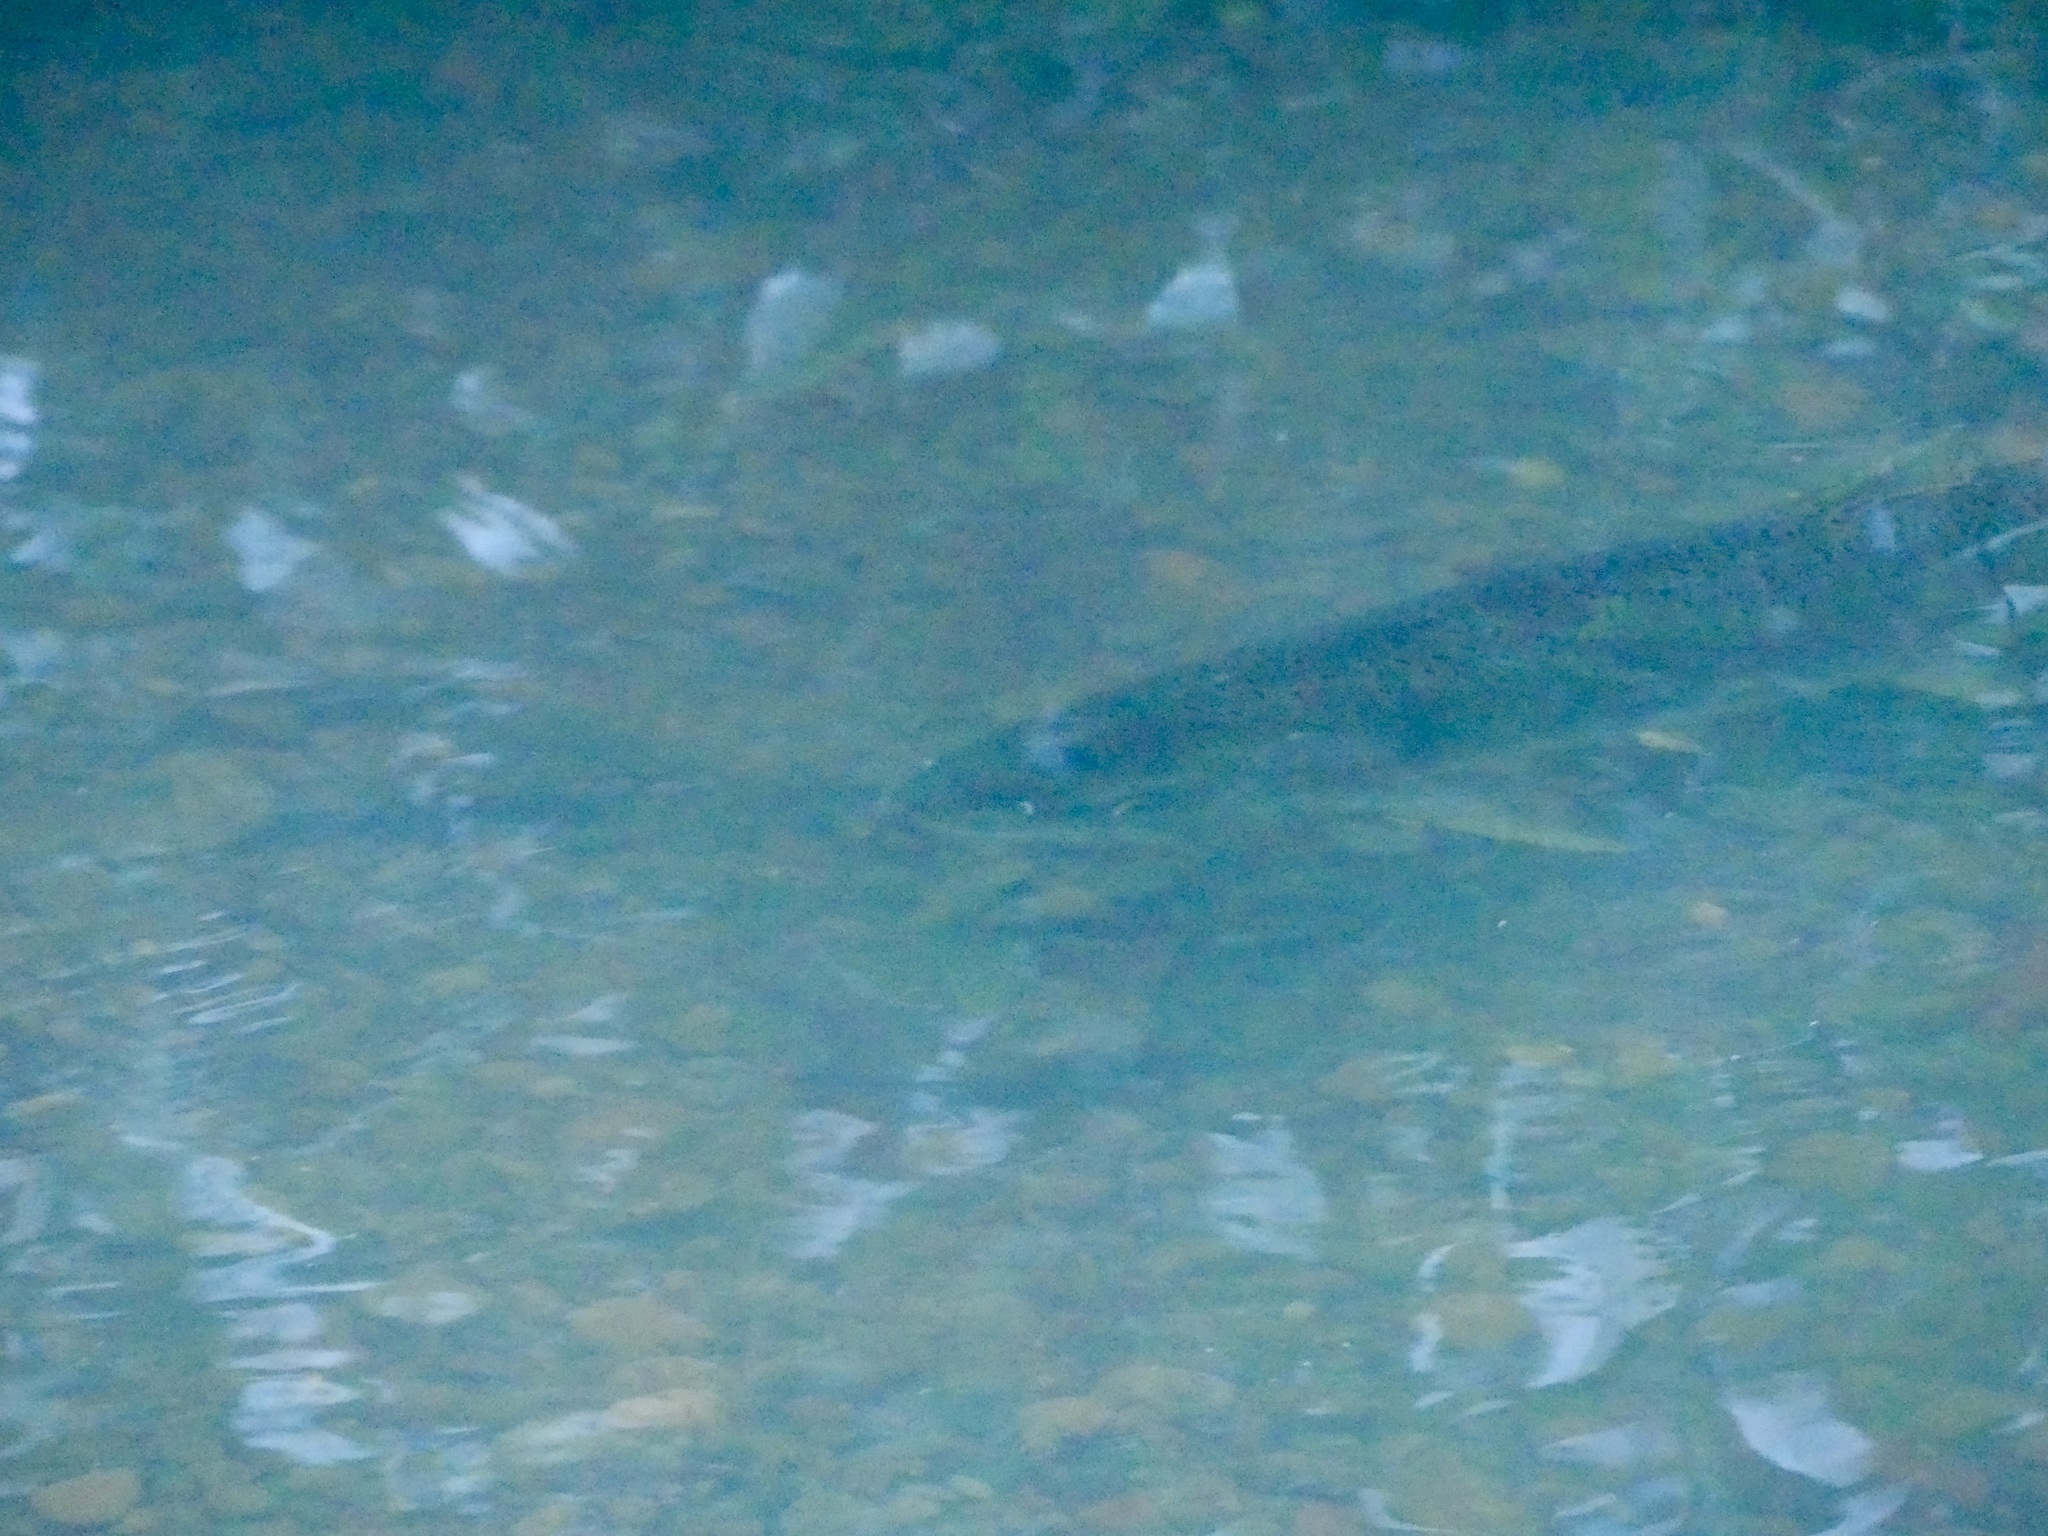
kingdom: Animalia
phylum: Chordata
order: Salmoniformes
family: Salmonidae
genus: Oncorhynchus
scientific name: Oncorhynchus
